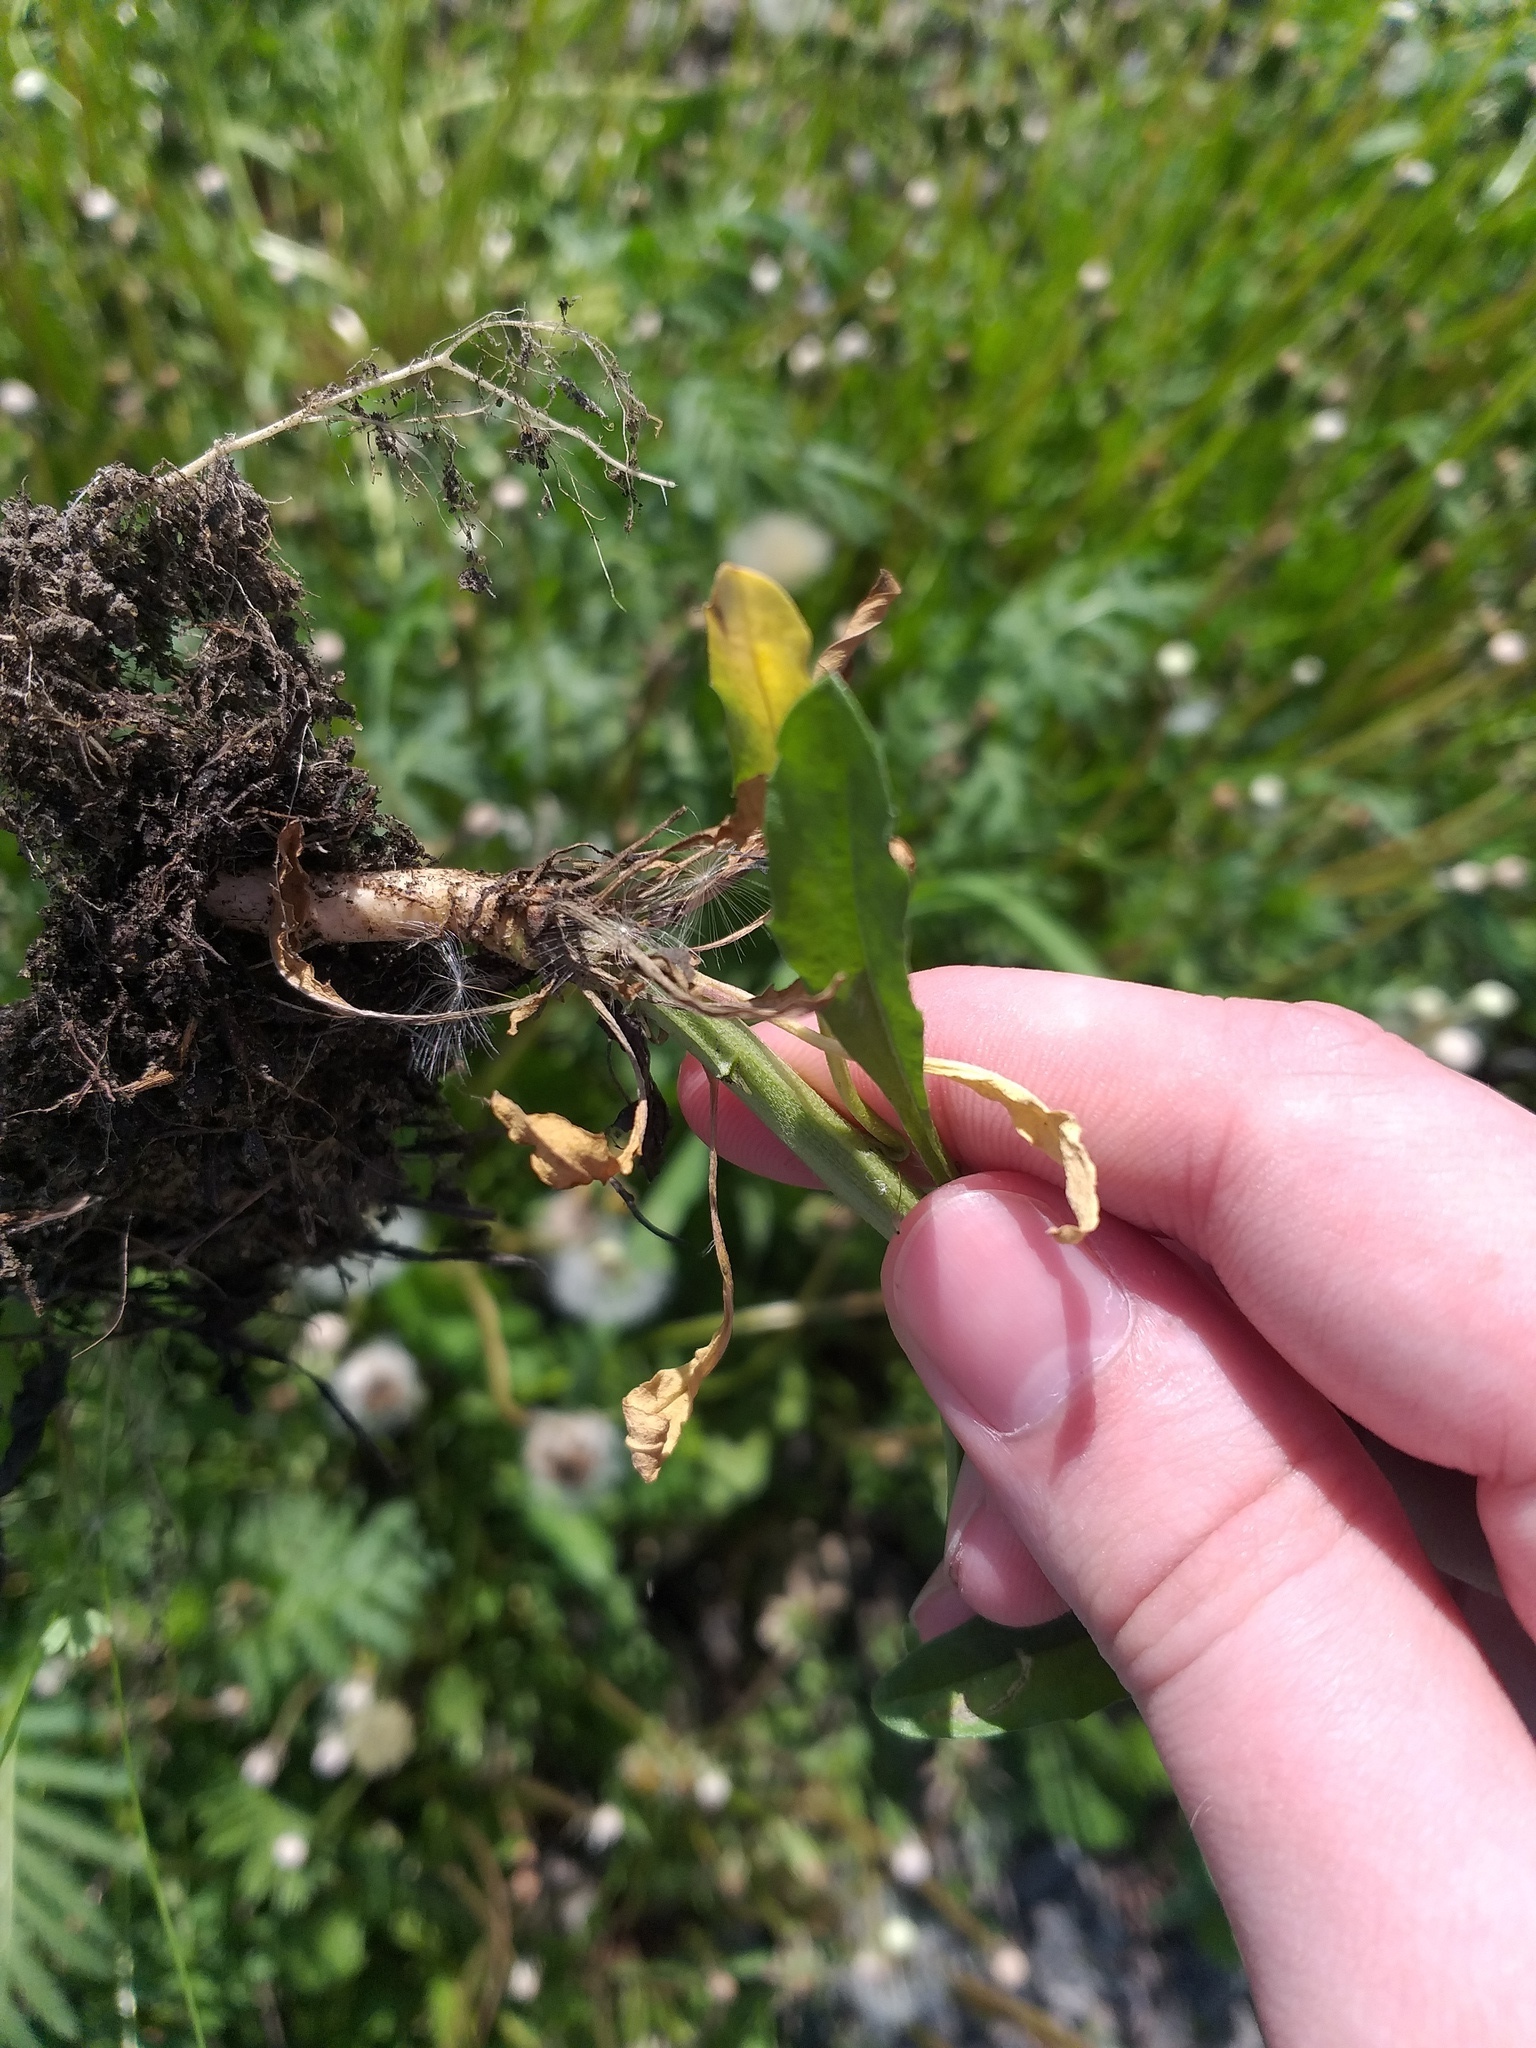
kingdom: Plantae
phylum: Tracheophyta
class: Magnoliopsida
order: Brassicales
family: Brassicaceae
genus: Erysimum
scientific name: Erysimum hieraciifolium
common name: European wallflower
